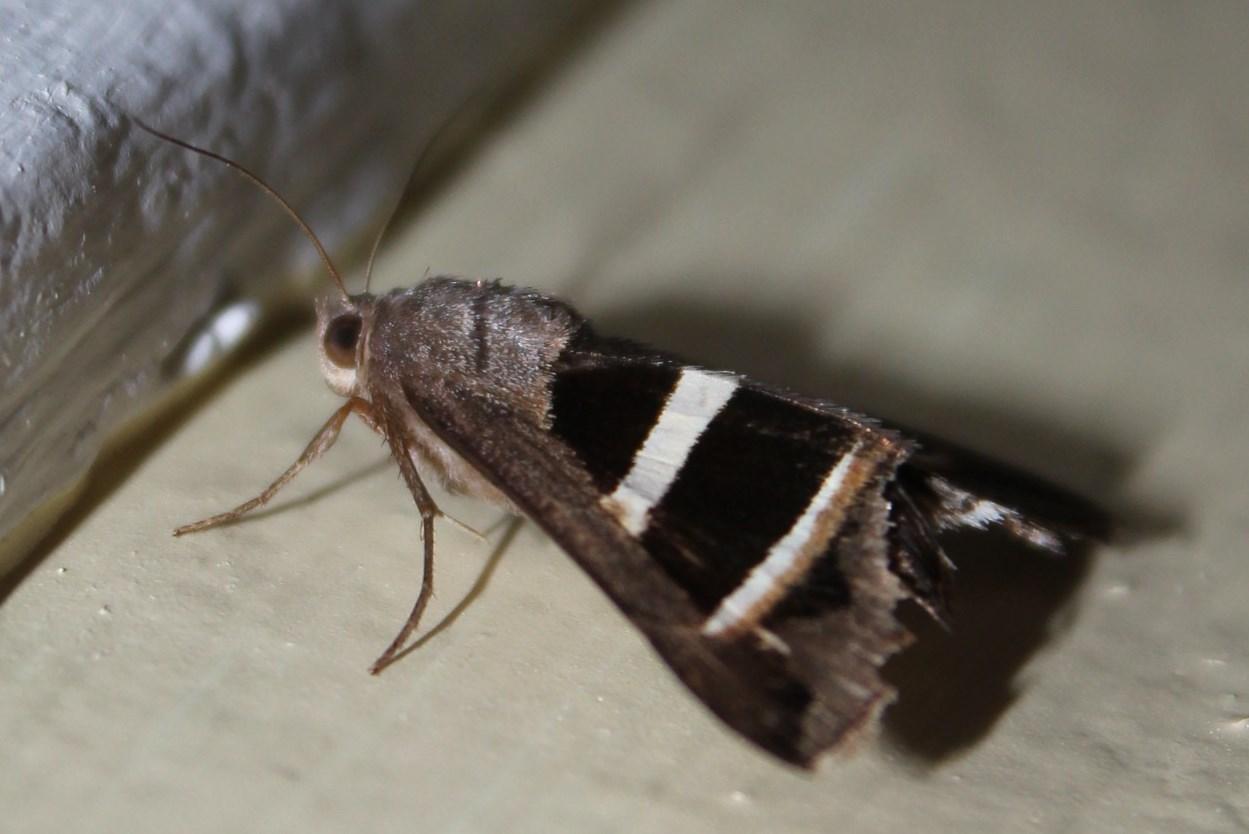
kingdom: Animalia
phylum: Arthropoda
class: Insecta
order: Lepidoptera
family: Erebidae
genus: Grammodes
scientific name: Grammodes geometrica
